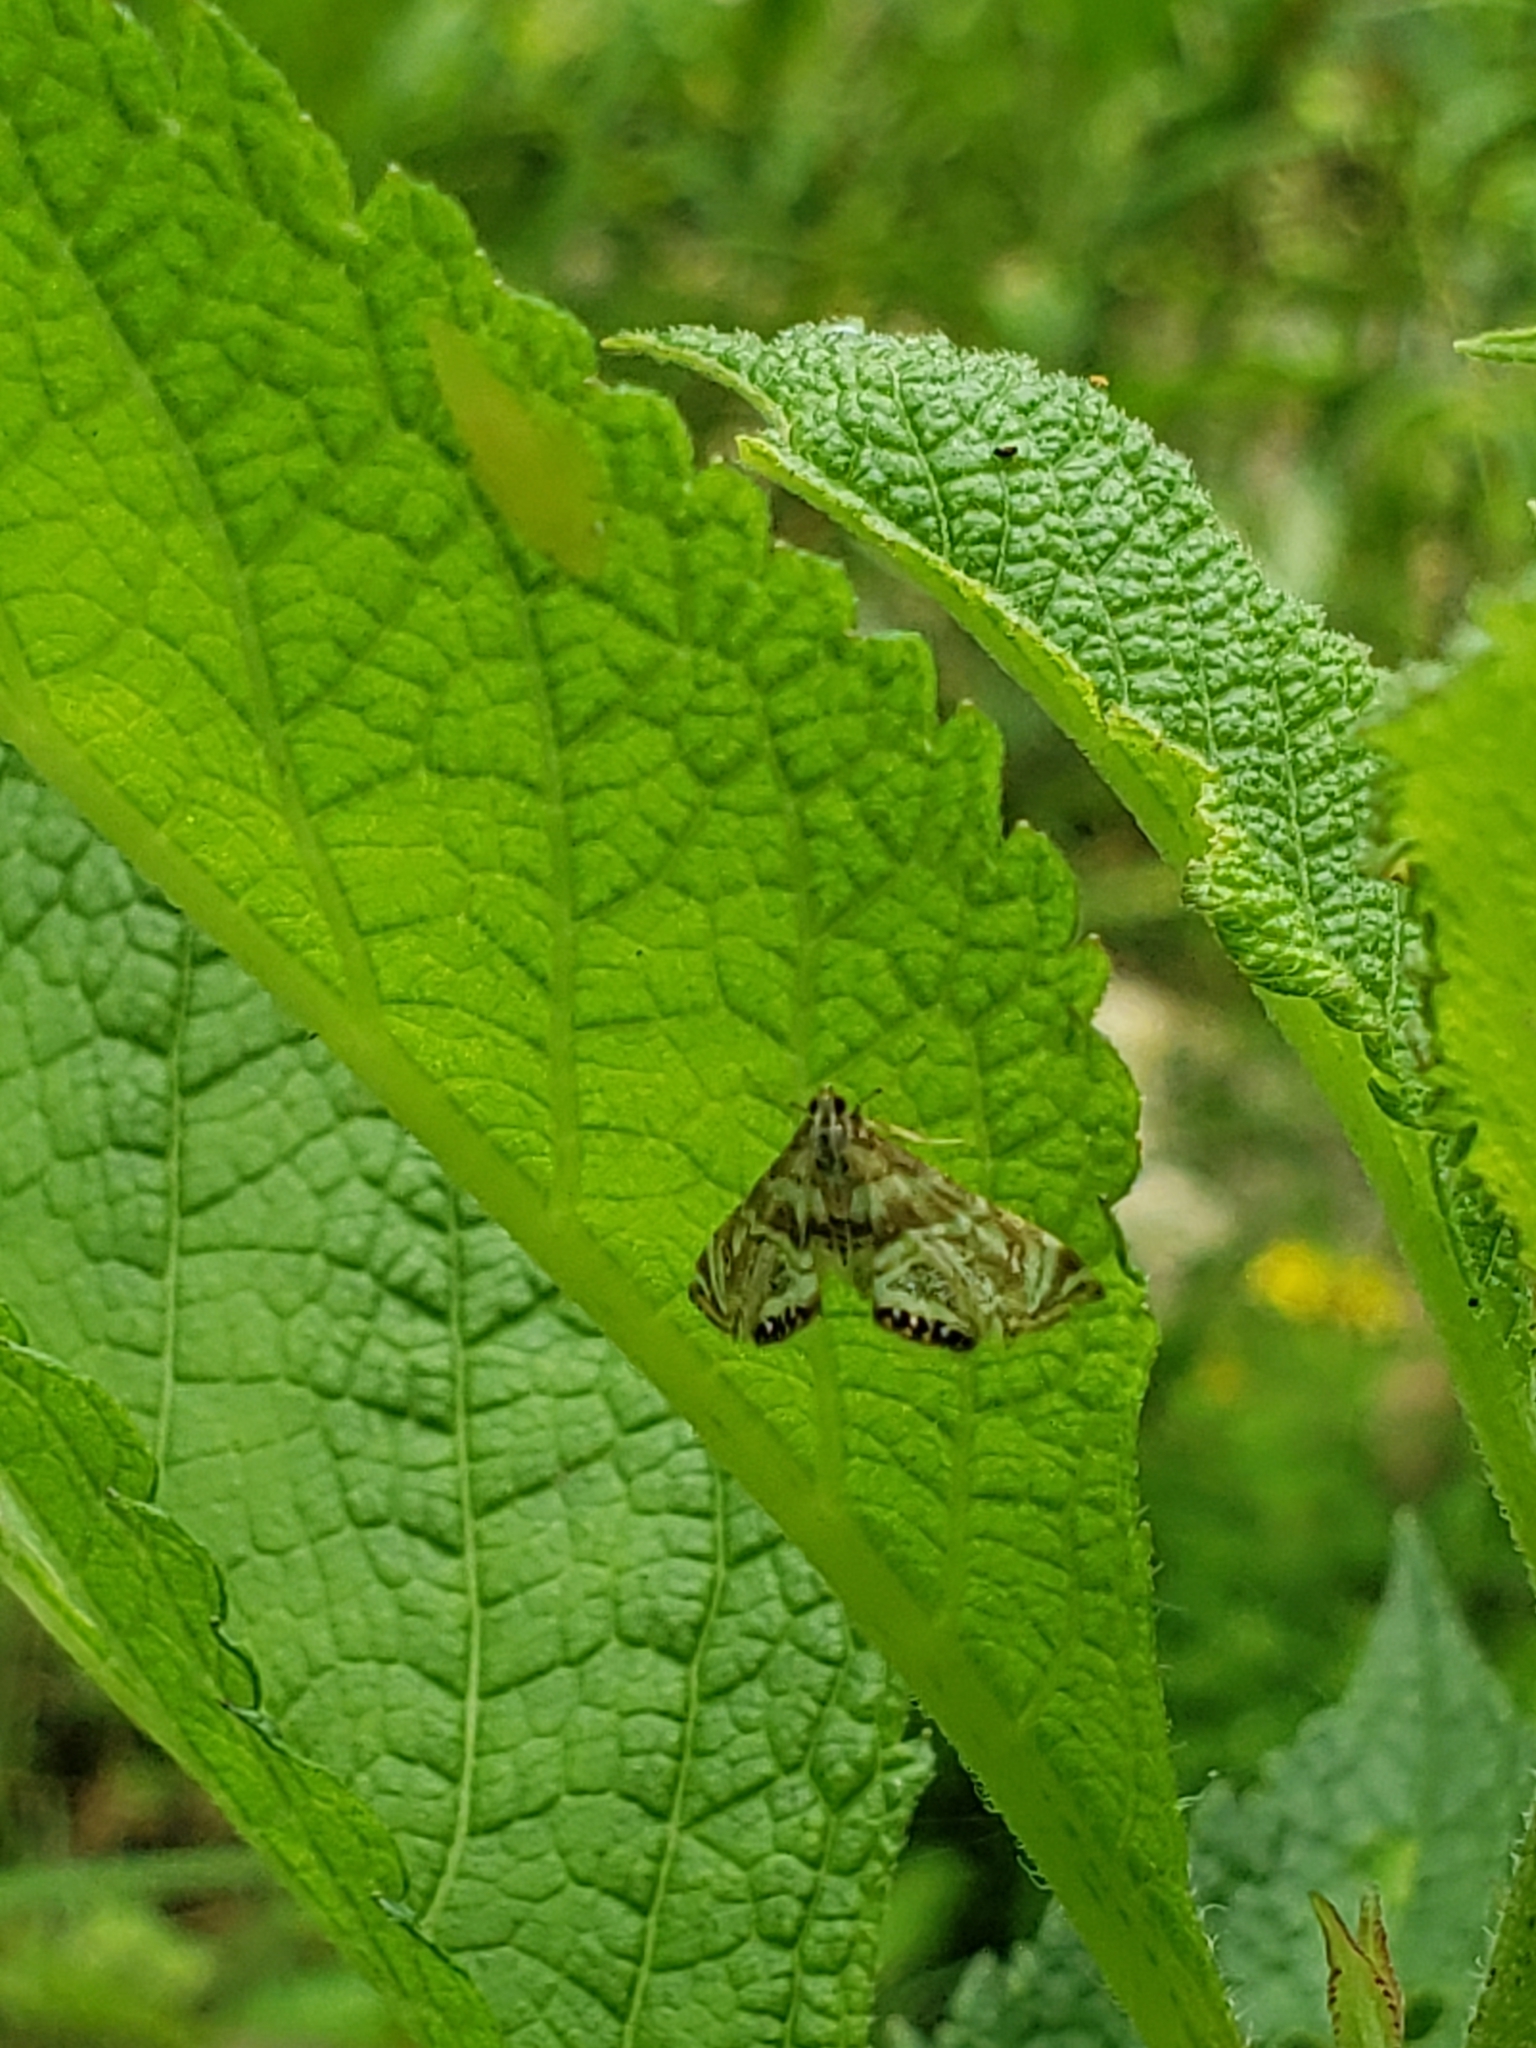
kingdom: Animalia
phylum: Arthropoda
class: Insecta
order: Lepidoptera
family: Crambidae
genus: Petrophila
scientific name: Petrophila canadensis
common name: Canadian petrophila
